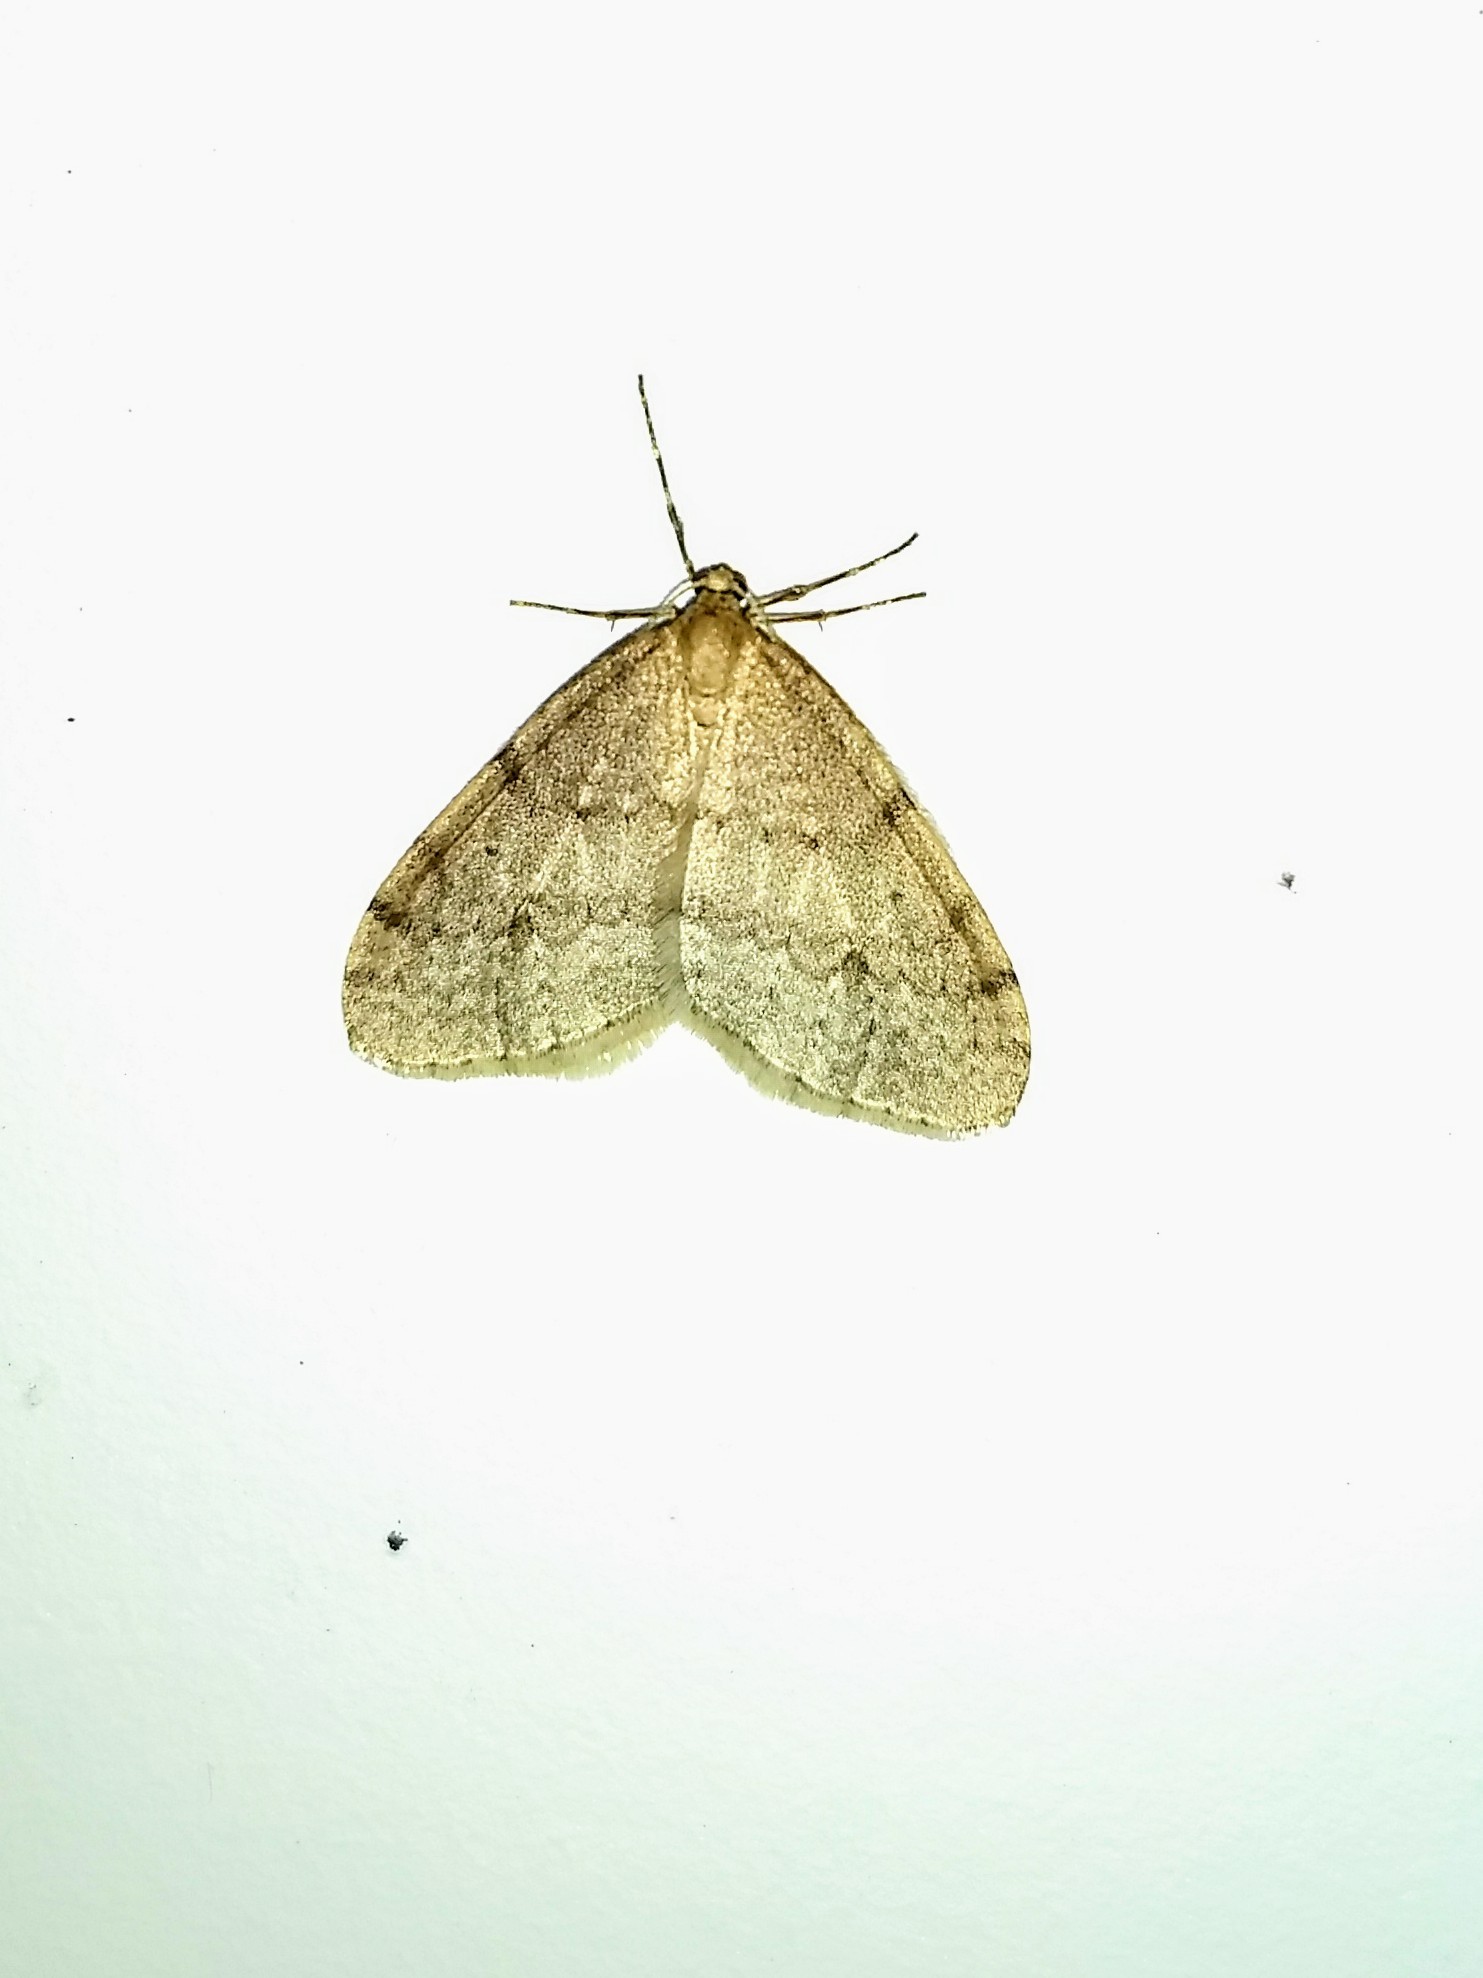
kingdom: Animalia
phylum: Arthropoda
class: Insecta
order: Lepidoptera
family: Geometridae
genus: Operophtera
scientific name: Operophtera bruceata
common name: Bruce spanworm
